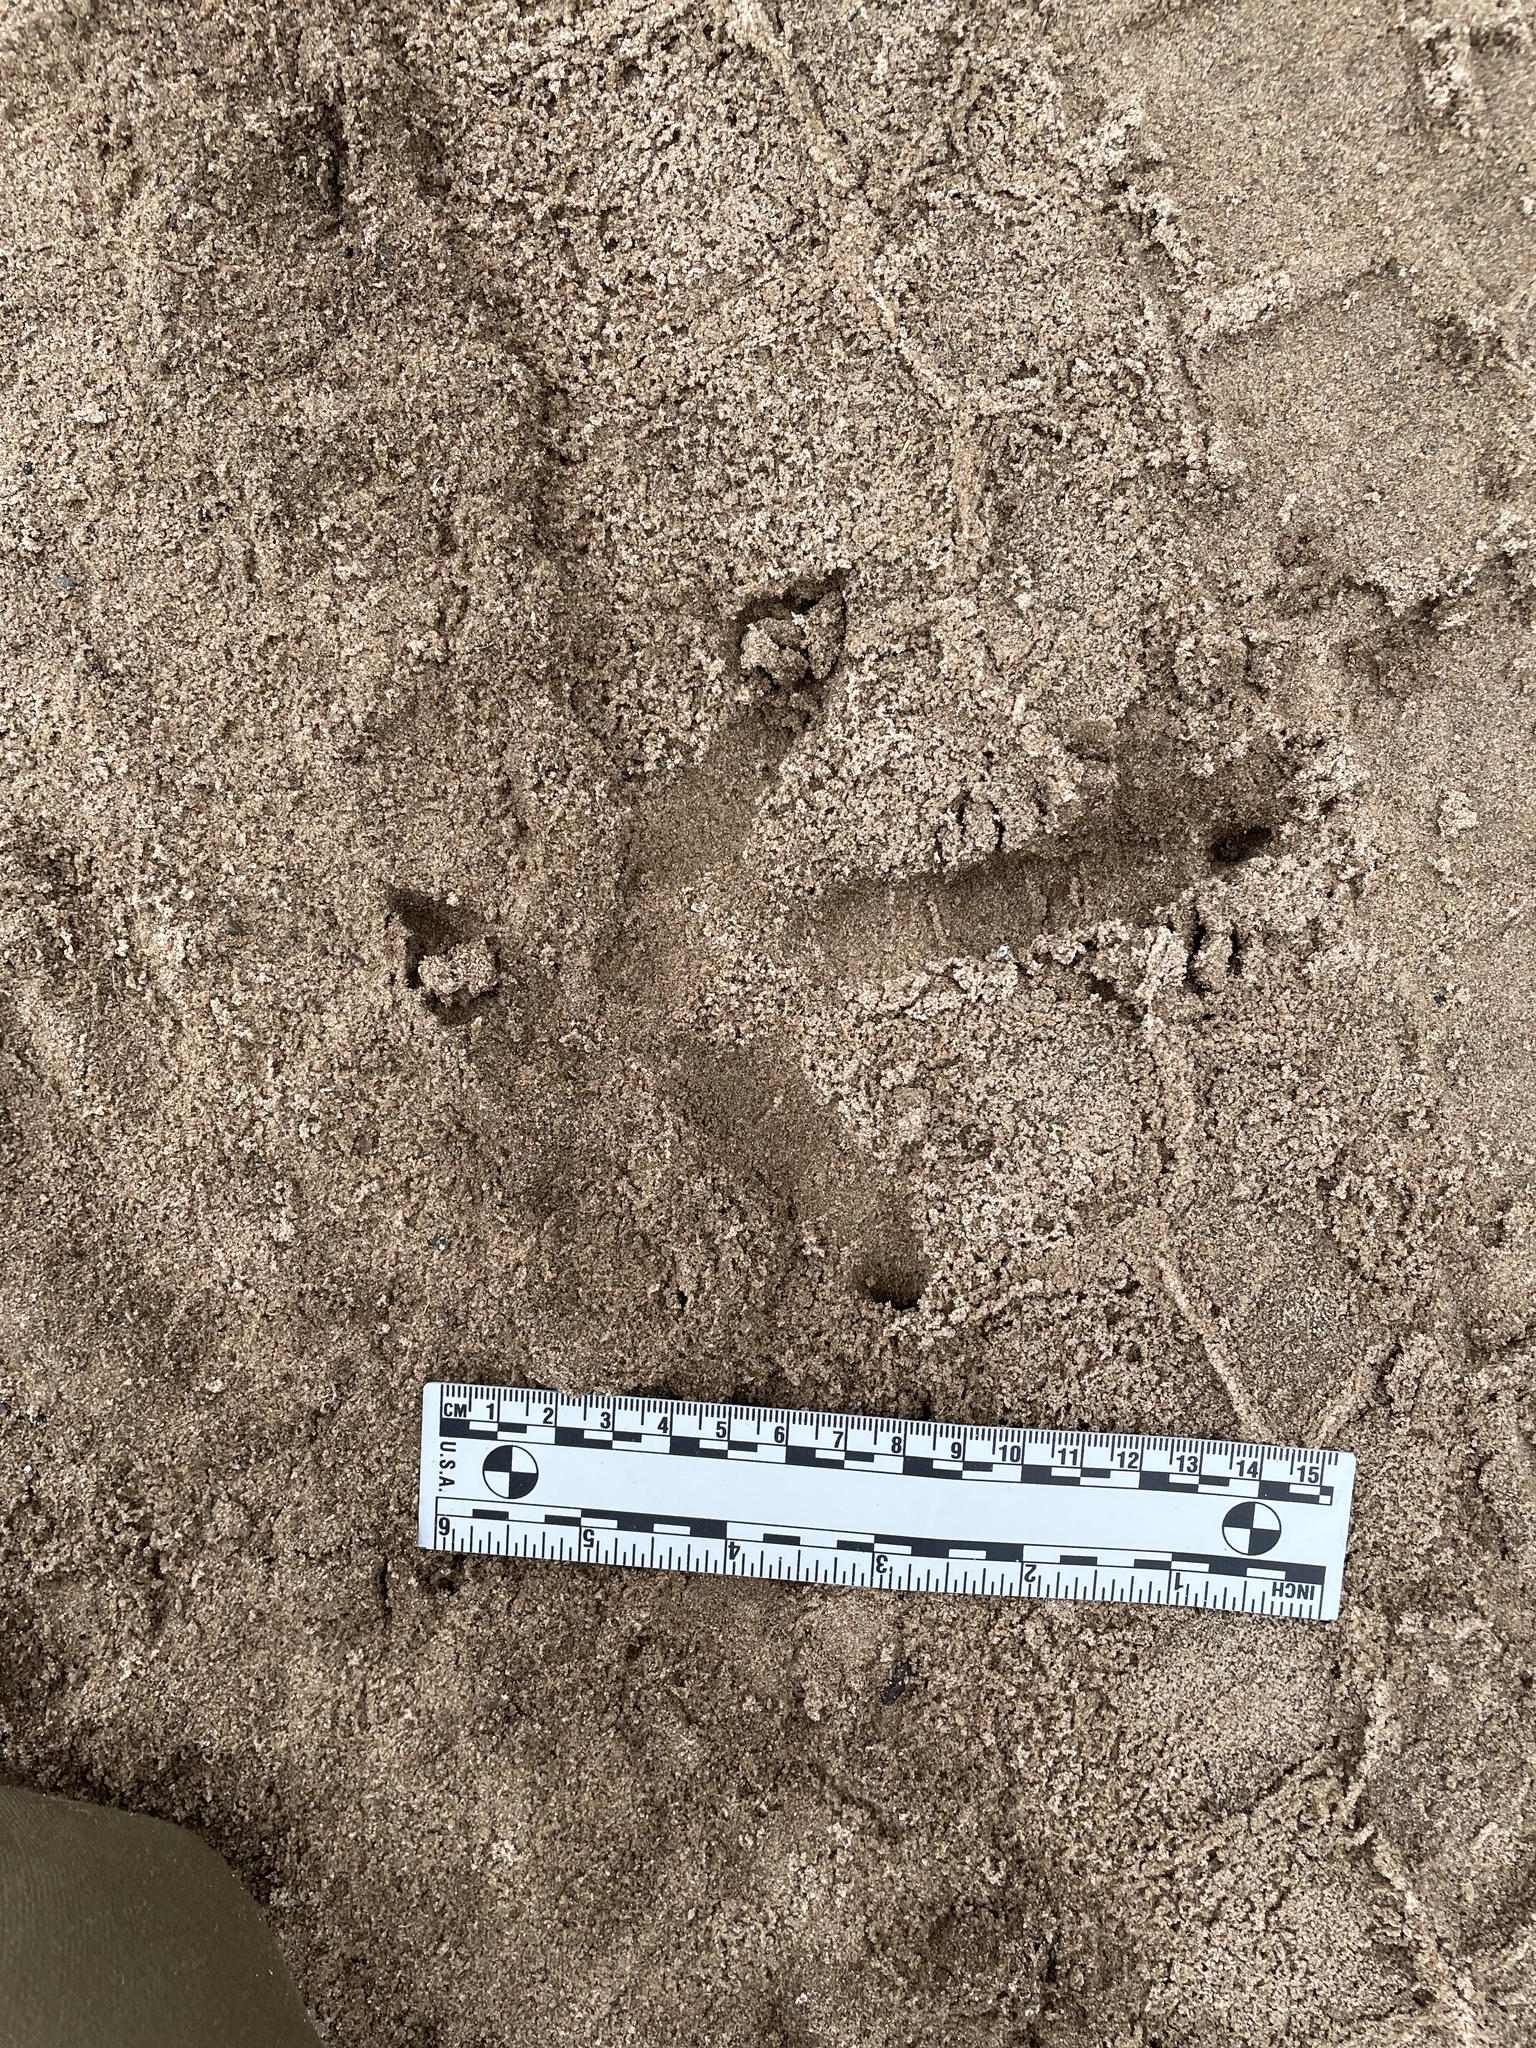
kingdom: Animalia
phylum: Chordata
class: Aves
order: Galliformes
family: Phasianidae
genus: Meleagris
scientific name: Meleagris gallopavo
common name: Wild turkey
